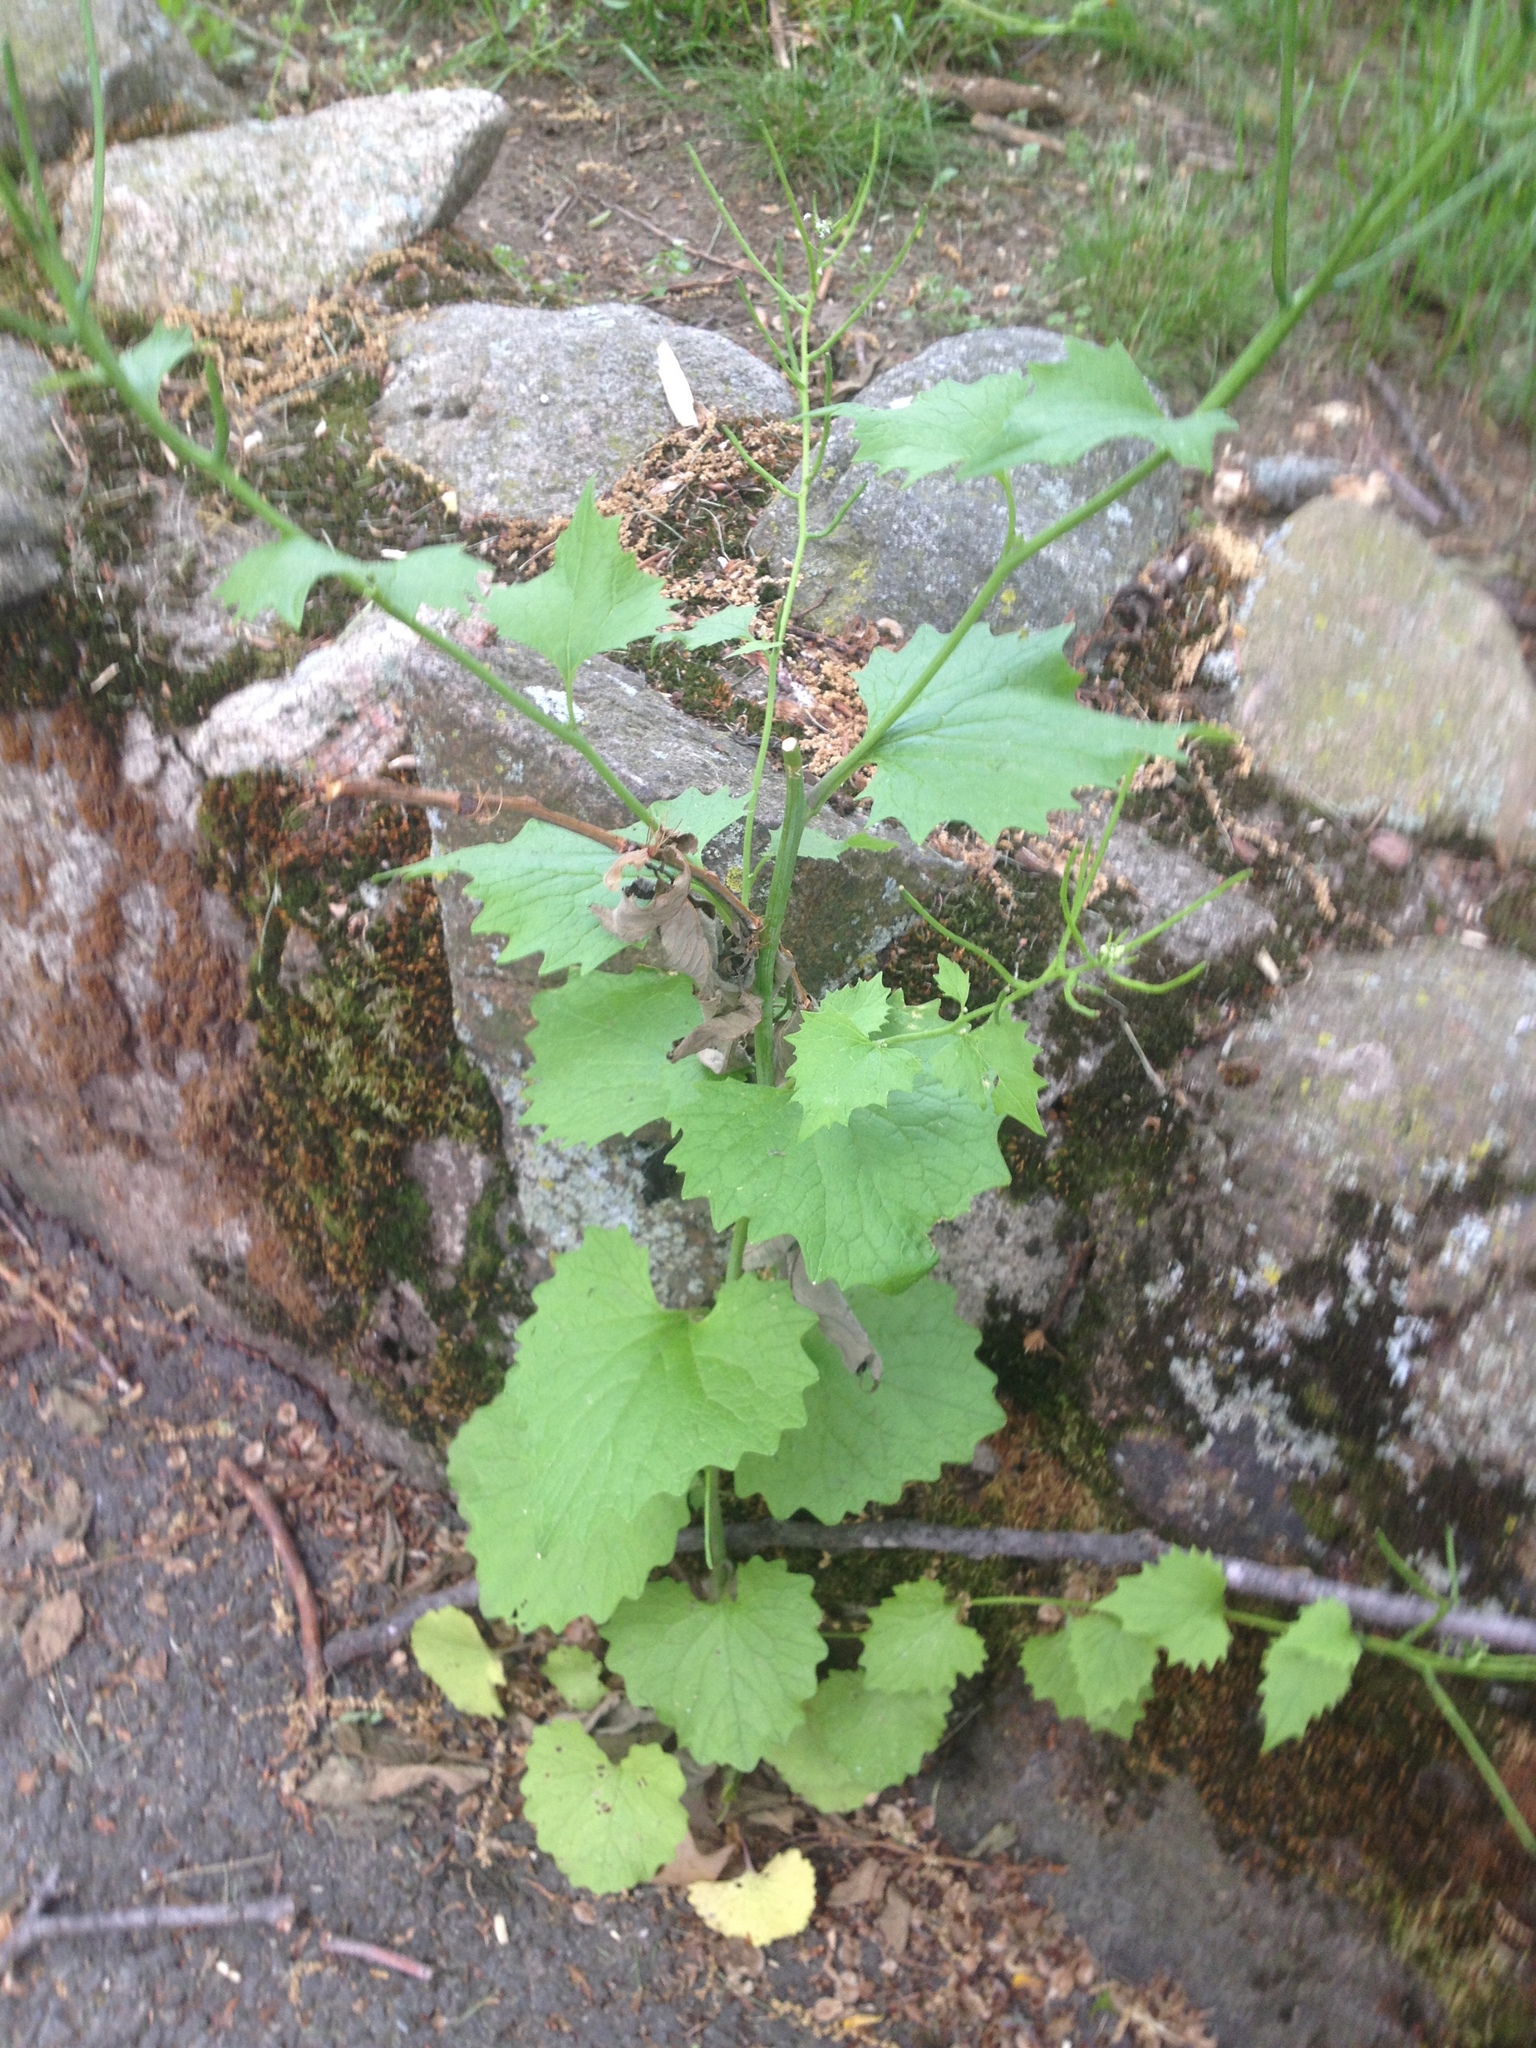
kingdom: Plantae
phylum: Tracheophyta
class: Magnoliopsida
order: Brassicales
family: Brassicaceae
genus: Alliaria
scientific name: Alliaria petiolata
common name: Garlic mustard
